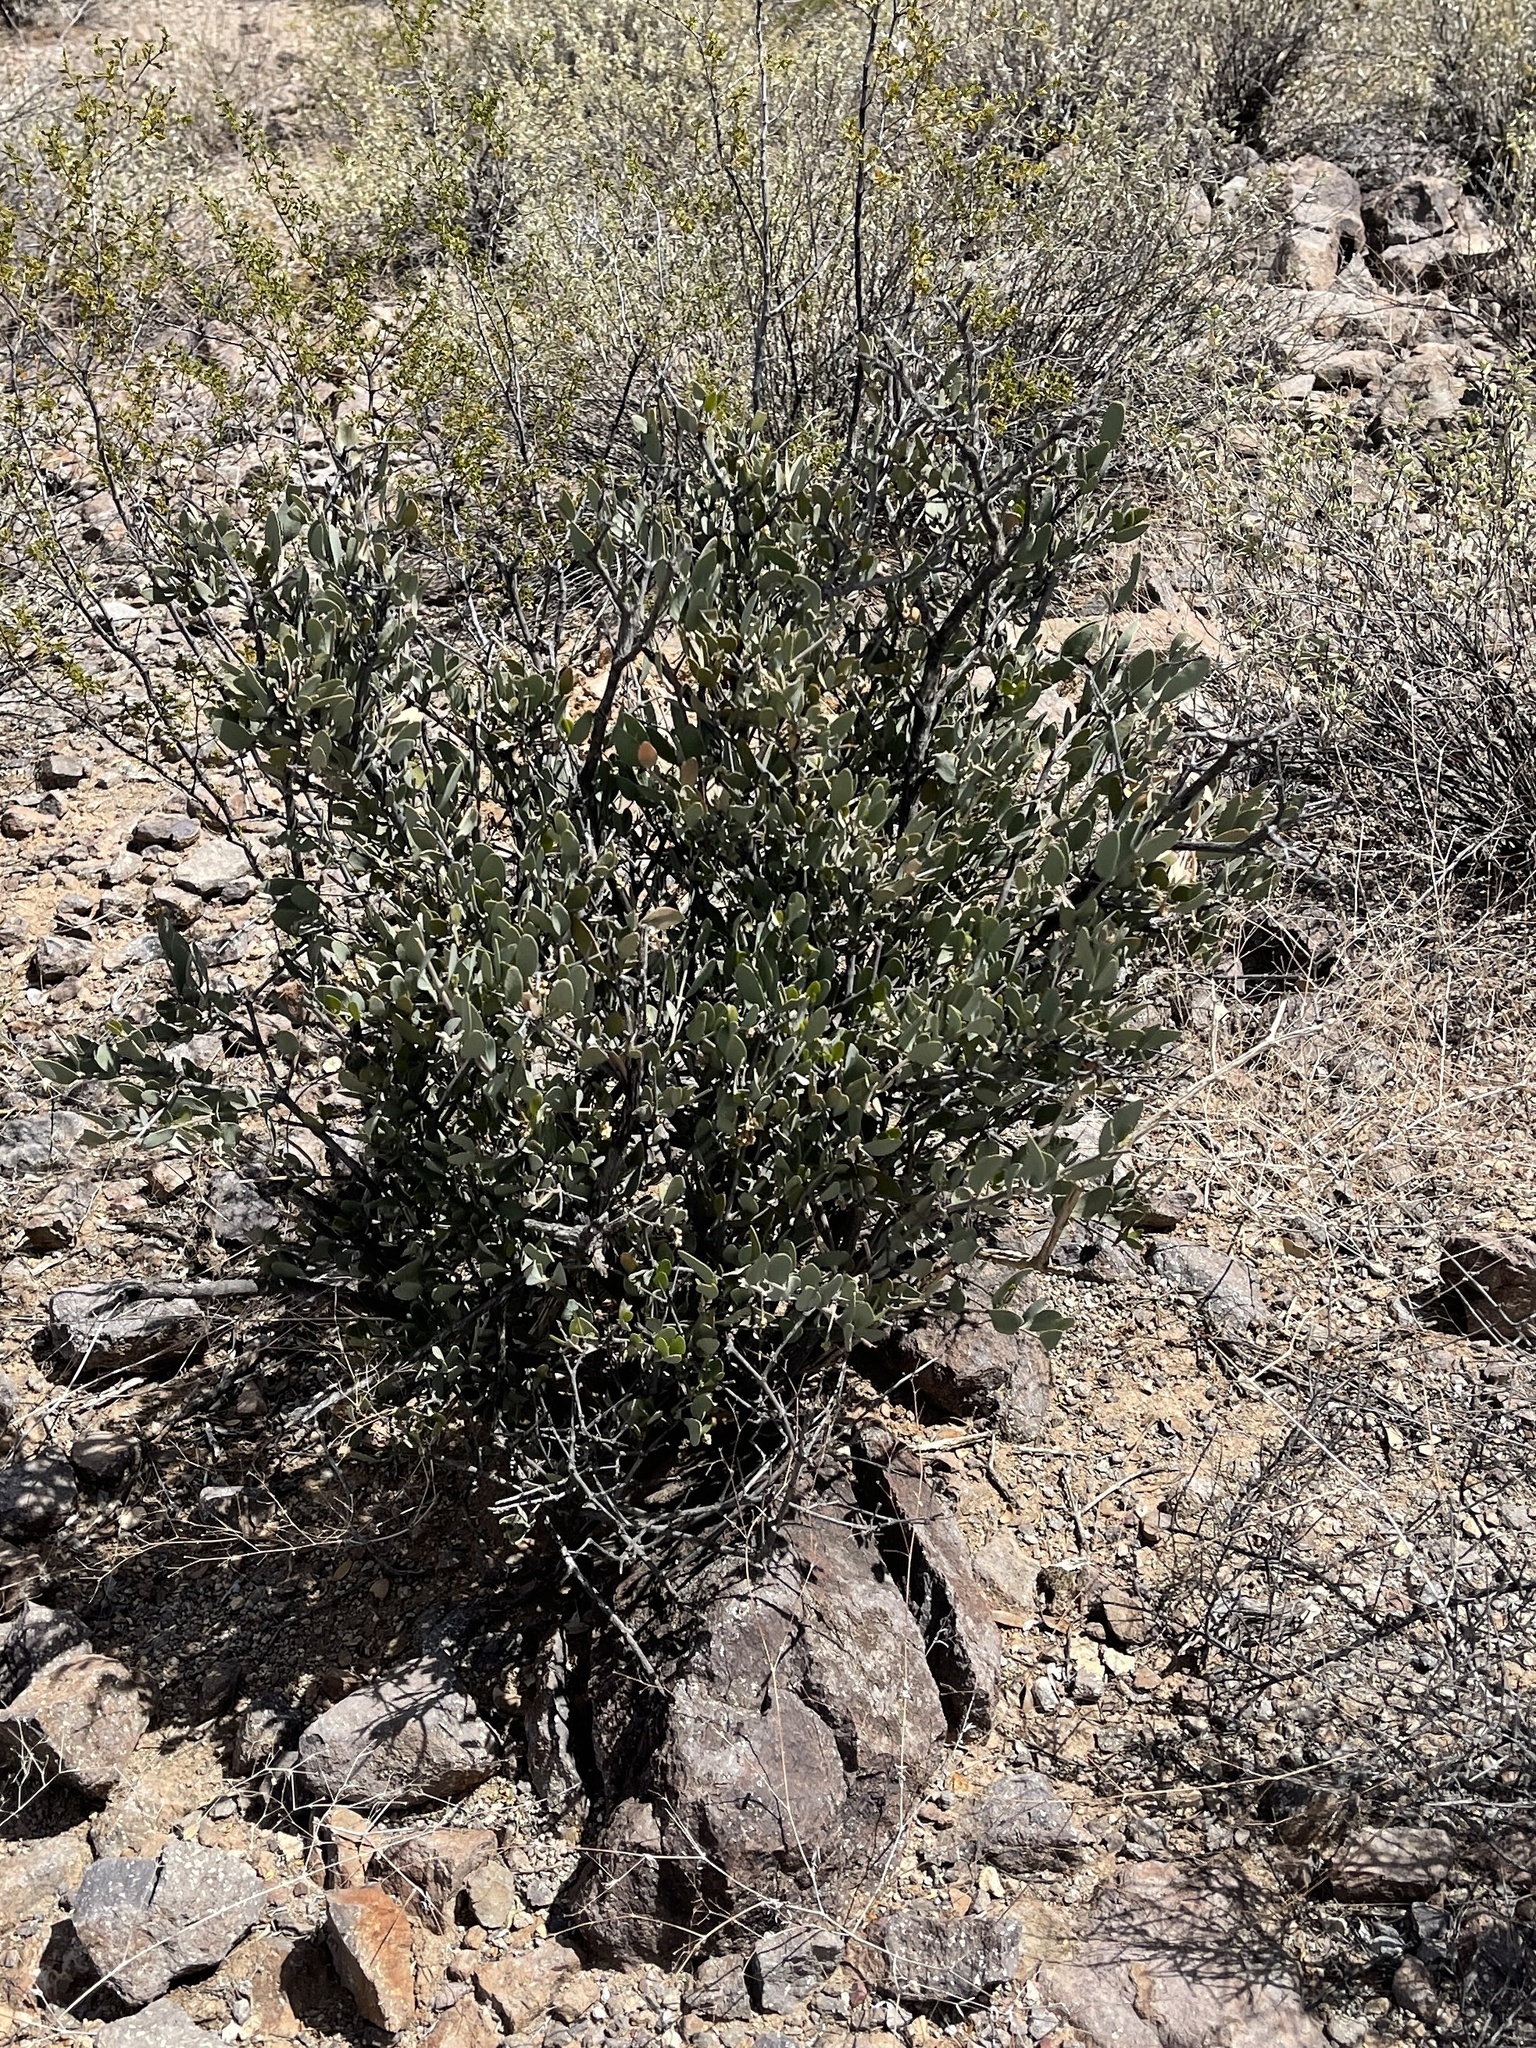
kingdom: Plantae
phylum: Tracheophyta
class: Magnoliopsida
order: Caryophyllales
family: Simmondsiaceae
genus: Simmondsia
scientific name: Simmondsia chinensis
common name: Jojoba
